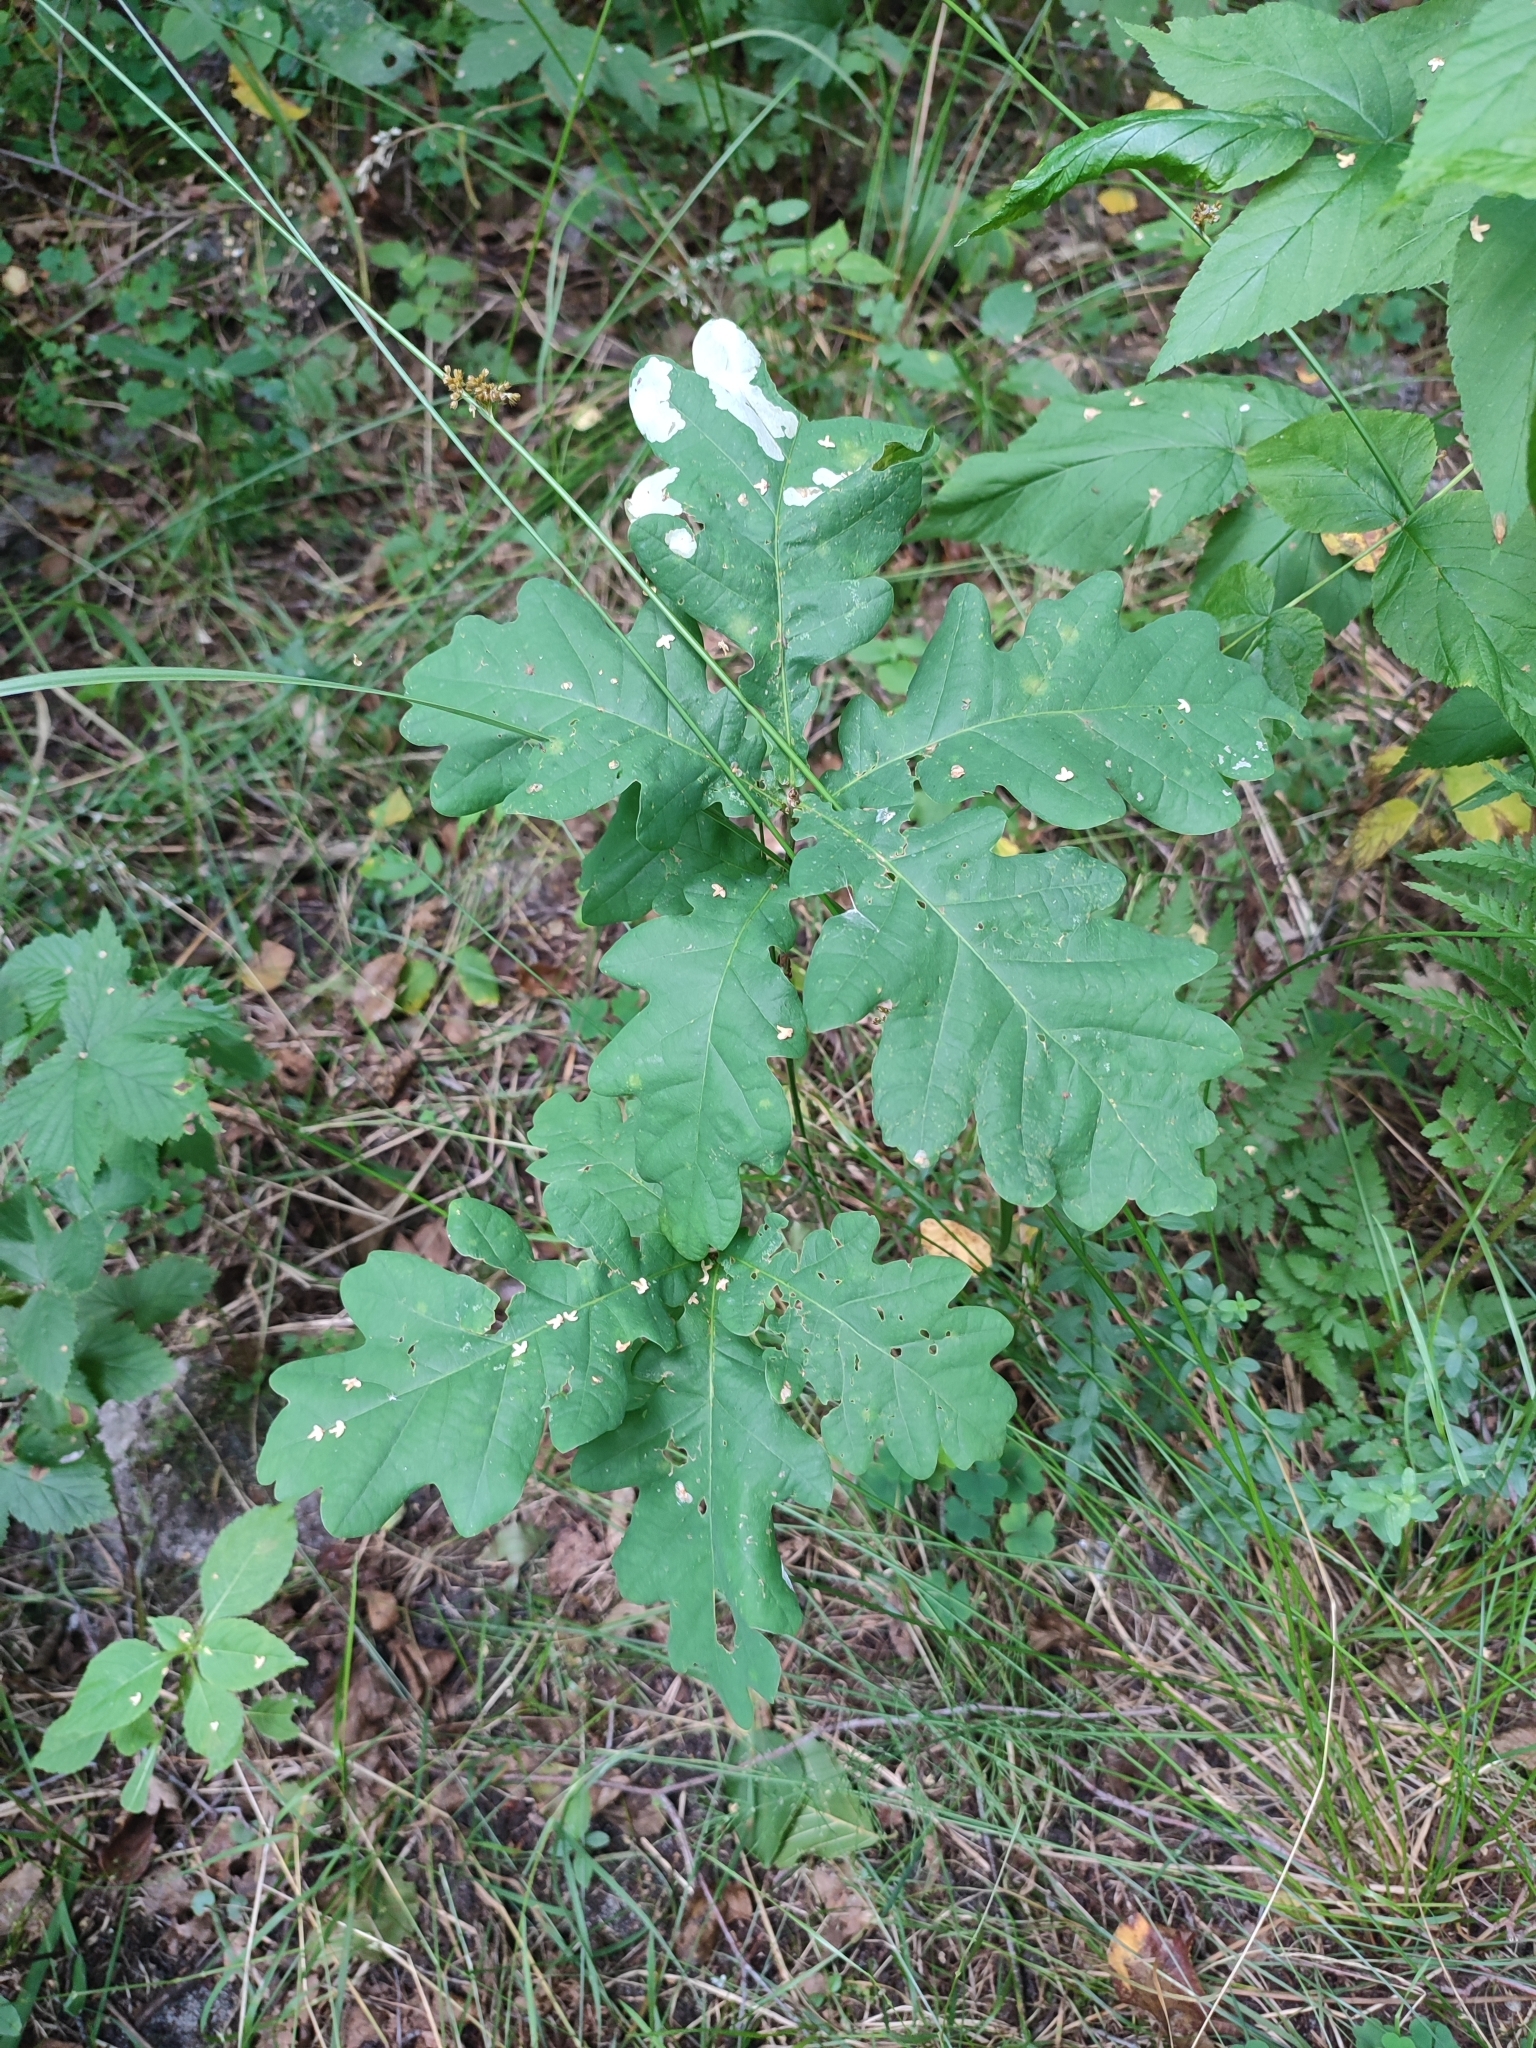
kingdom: Plantae
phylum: Tracheophyta
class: Magnoliopsida
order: Fagales
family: Fagaceae
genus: Quercus
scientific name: Quercus robur
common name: Pedunculate oak
